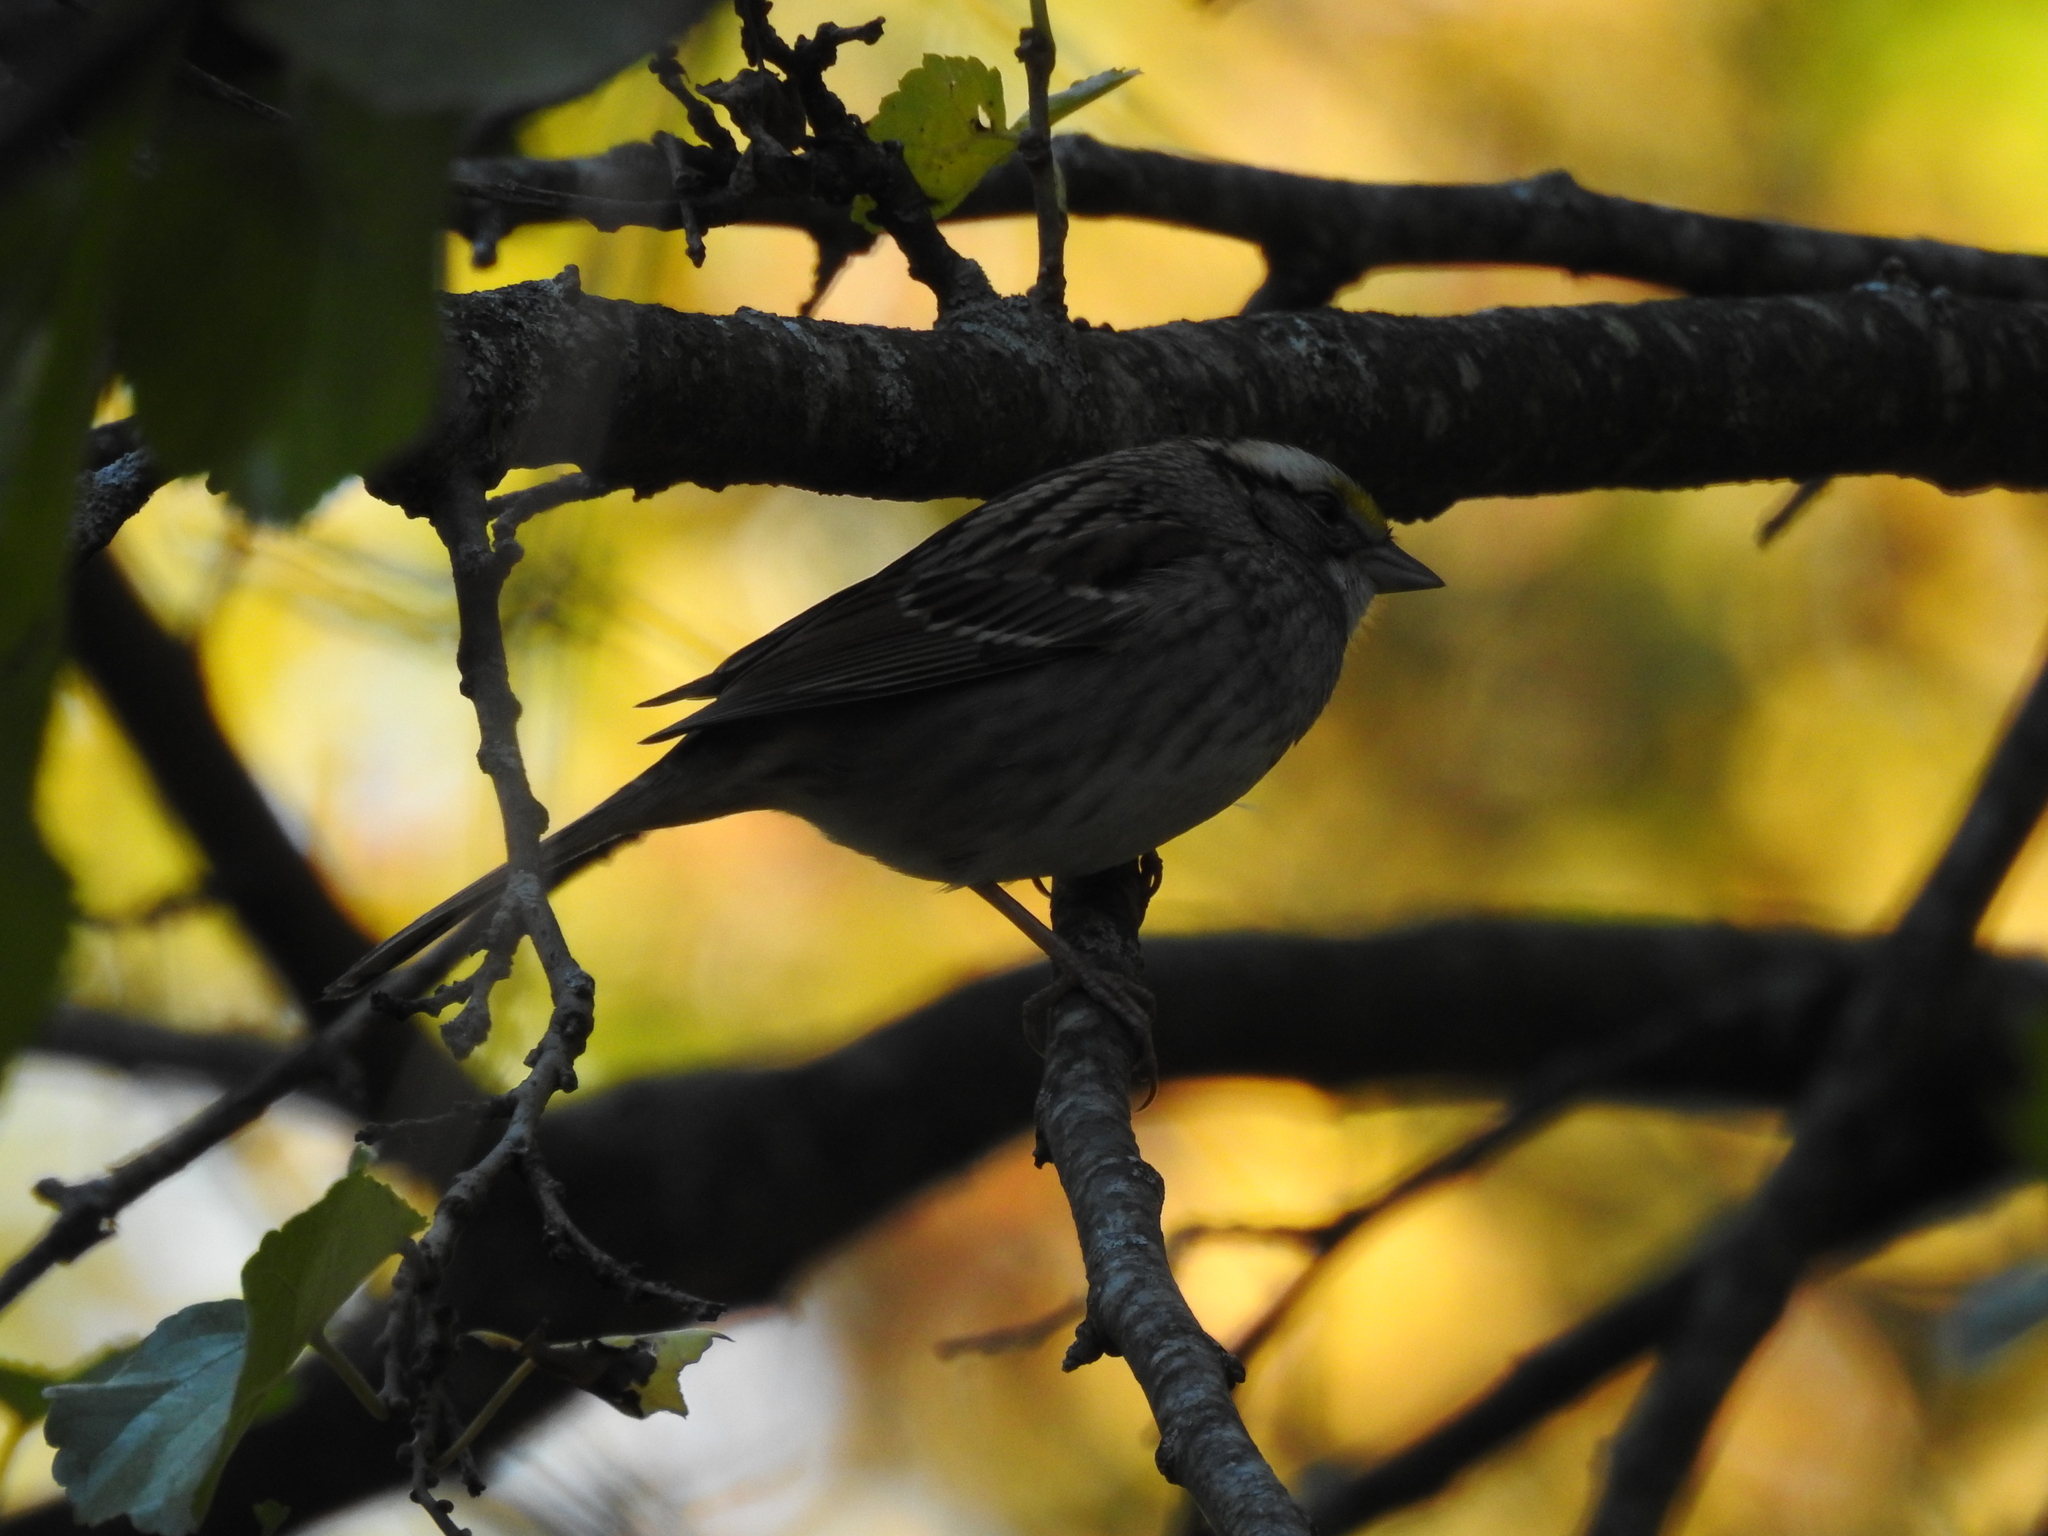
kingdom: Animalia
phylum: Chordata
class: Aves
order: Passeriformes
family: Passerellidae
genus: Zonotrichia
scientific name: Zonotrichia albicollis
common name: White-throated sparrow
